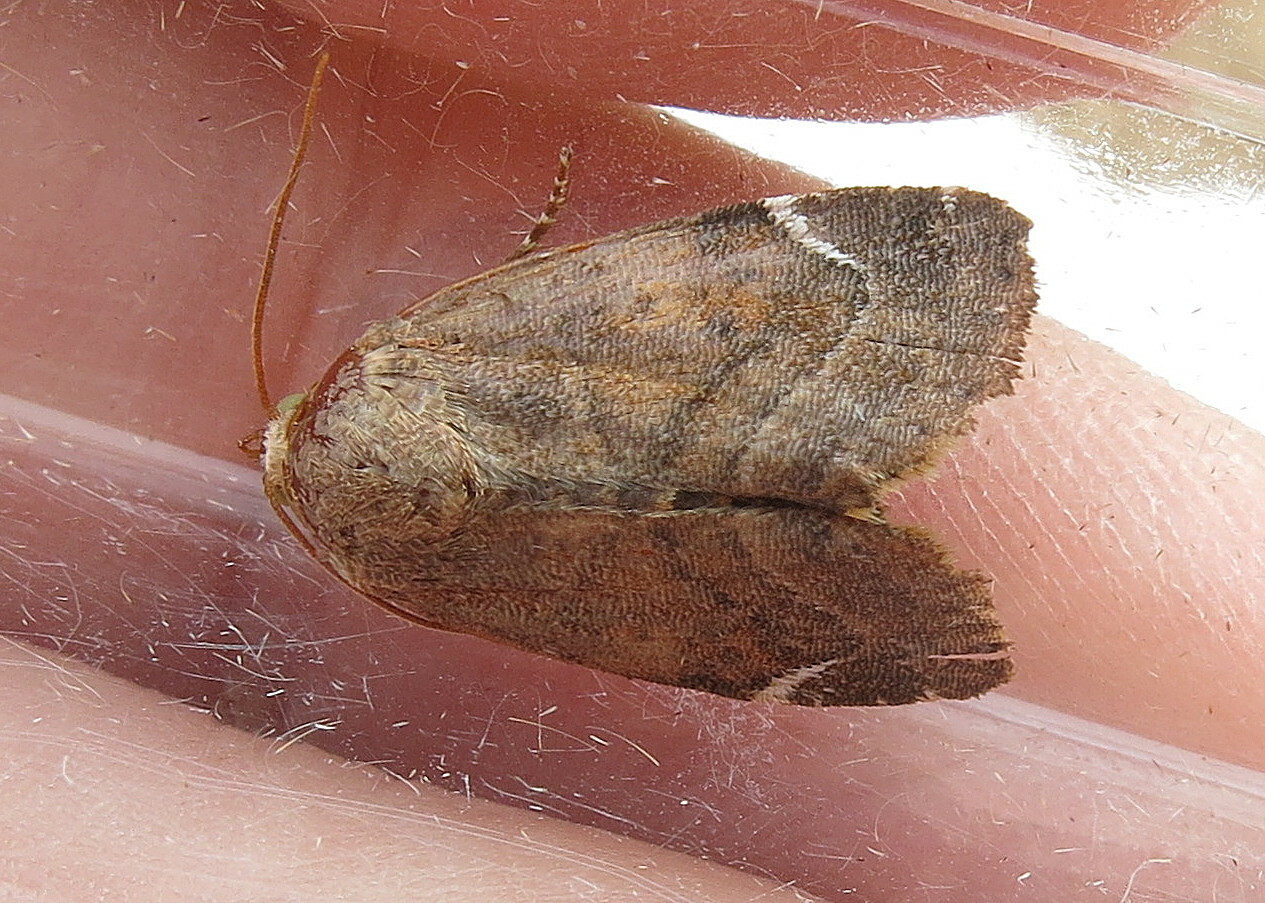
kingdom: Animalia
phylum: Arthropoda
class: Insecta
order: Lepidoptera
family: Noctuidae
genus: Cosmia
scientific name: Cosmia affinis
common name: Lesser-spotted pinion
